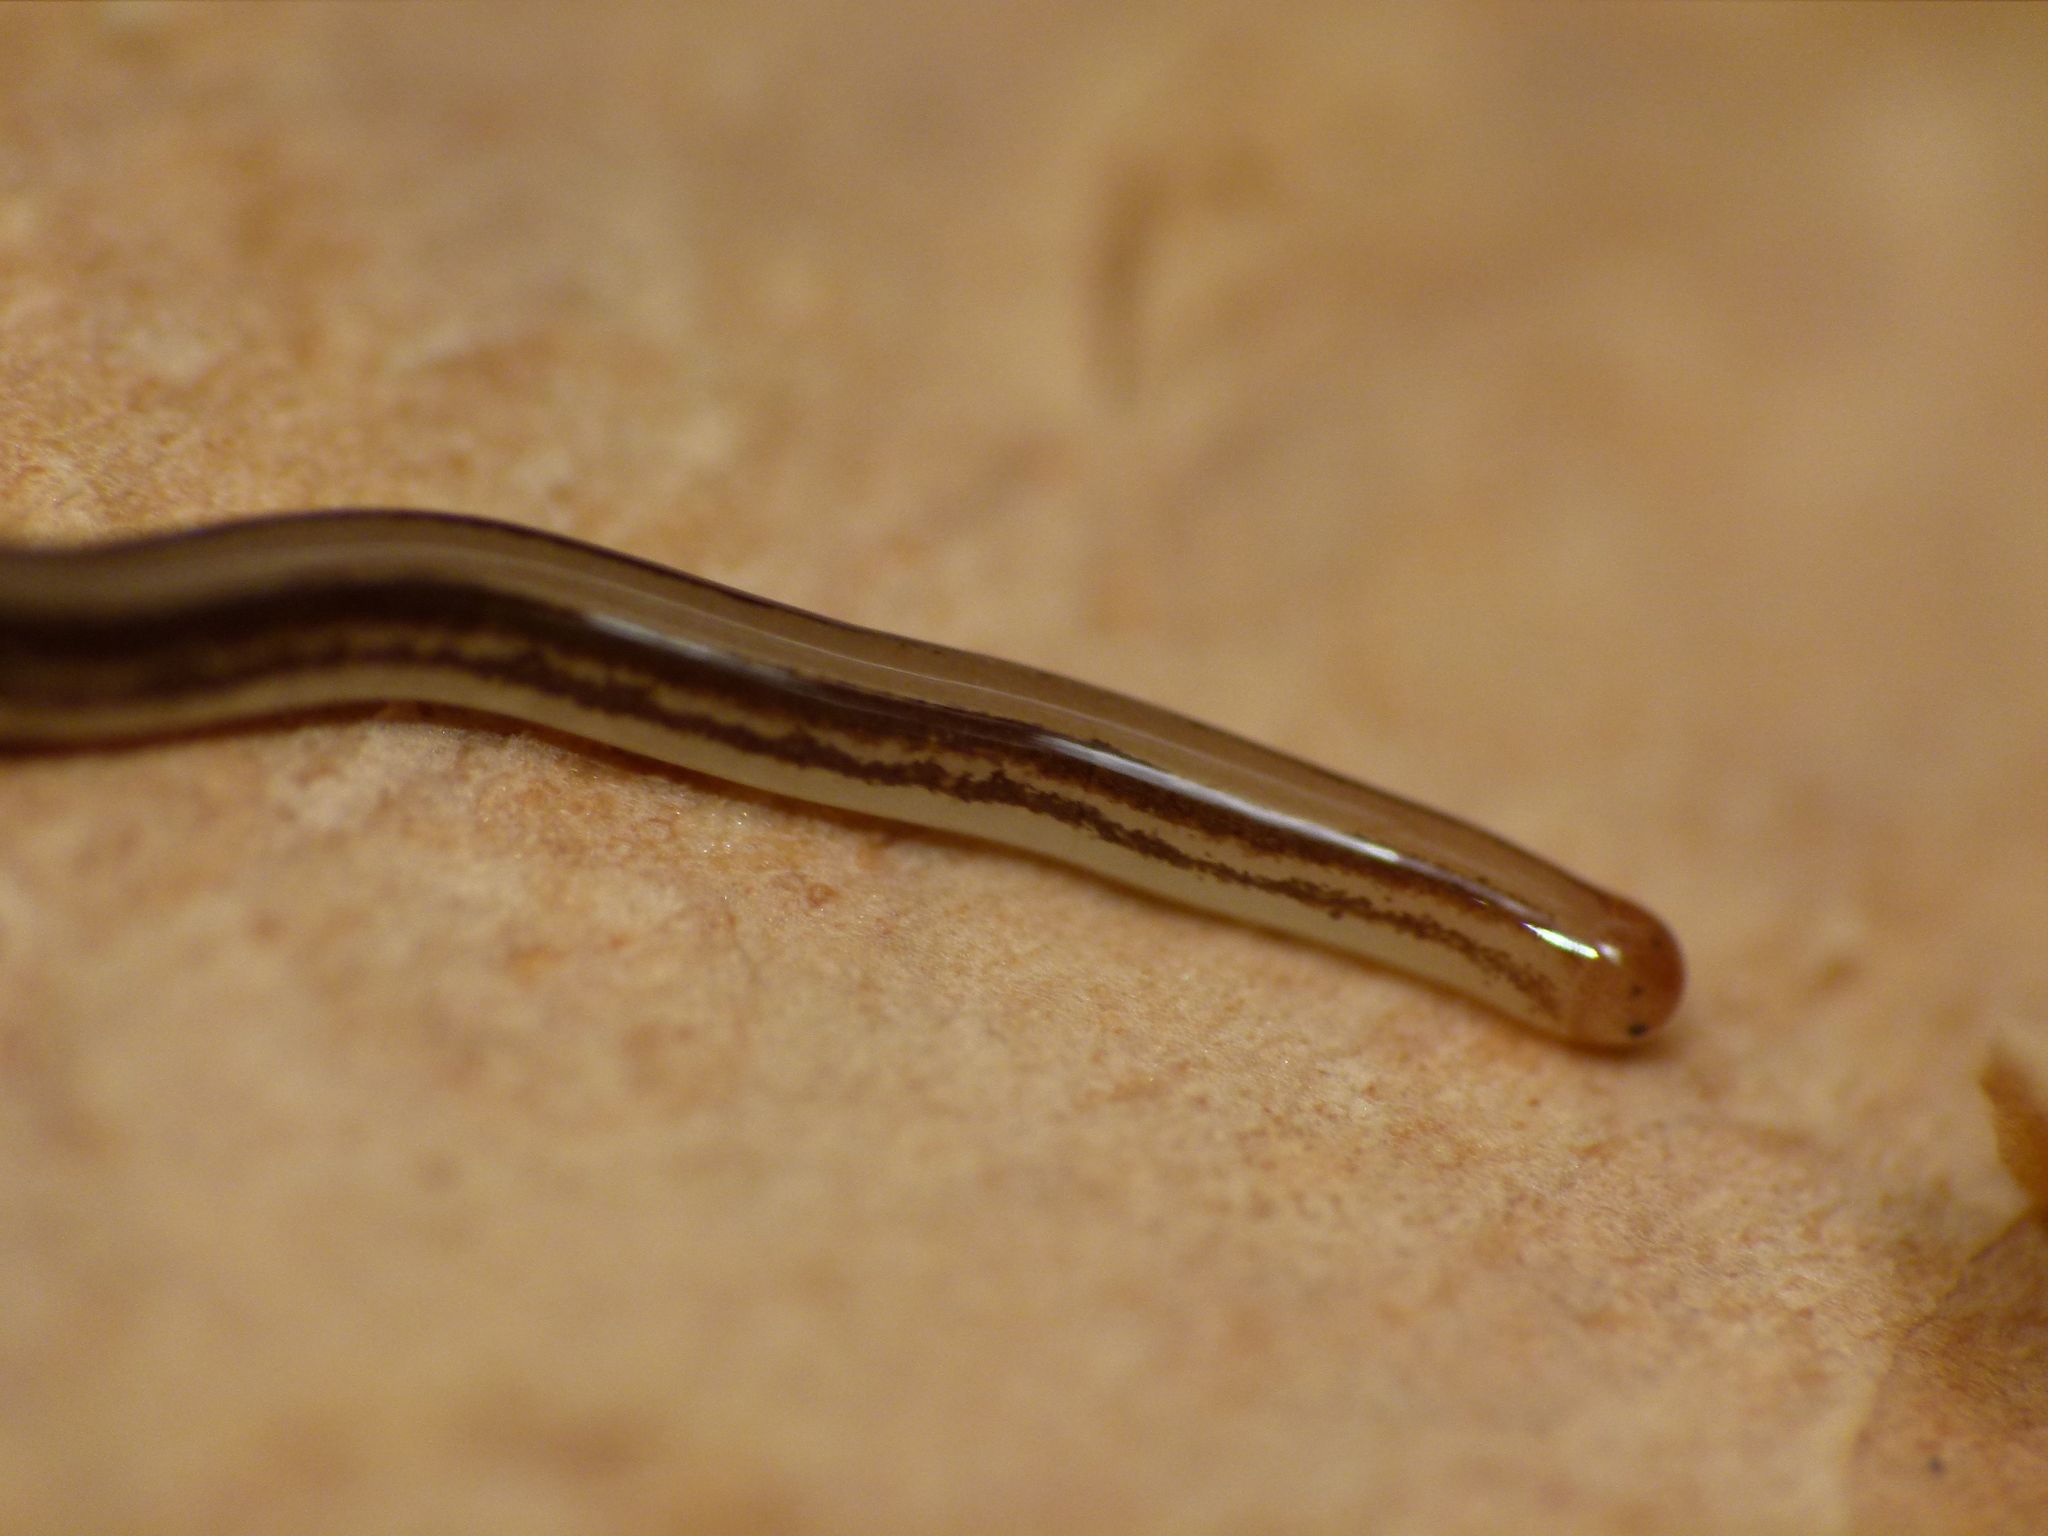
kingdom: Animalia
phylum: Nemertea
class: Hoplonemertea
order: Monostilifera
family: Acteonemertidae
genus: Antiponemertes
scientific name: Antiponemertes pantini
